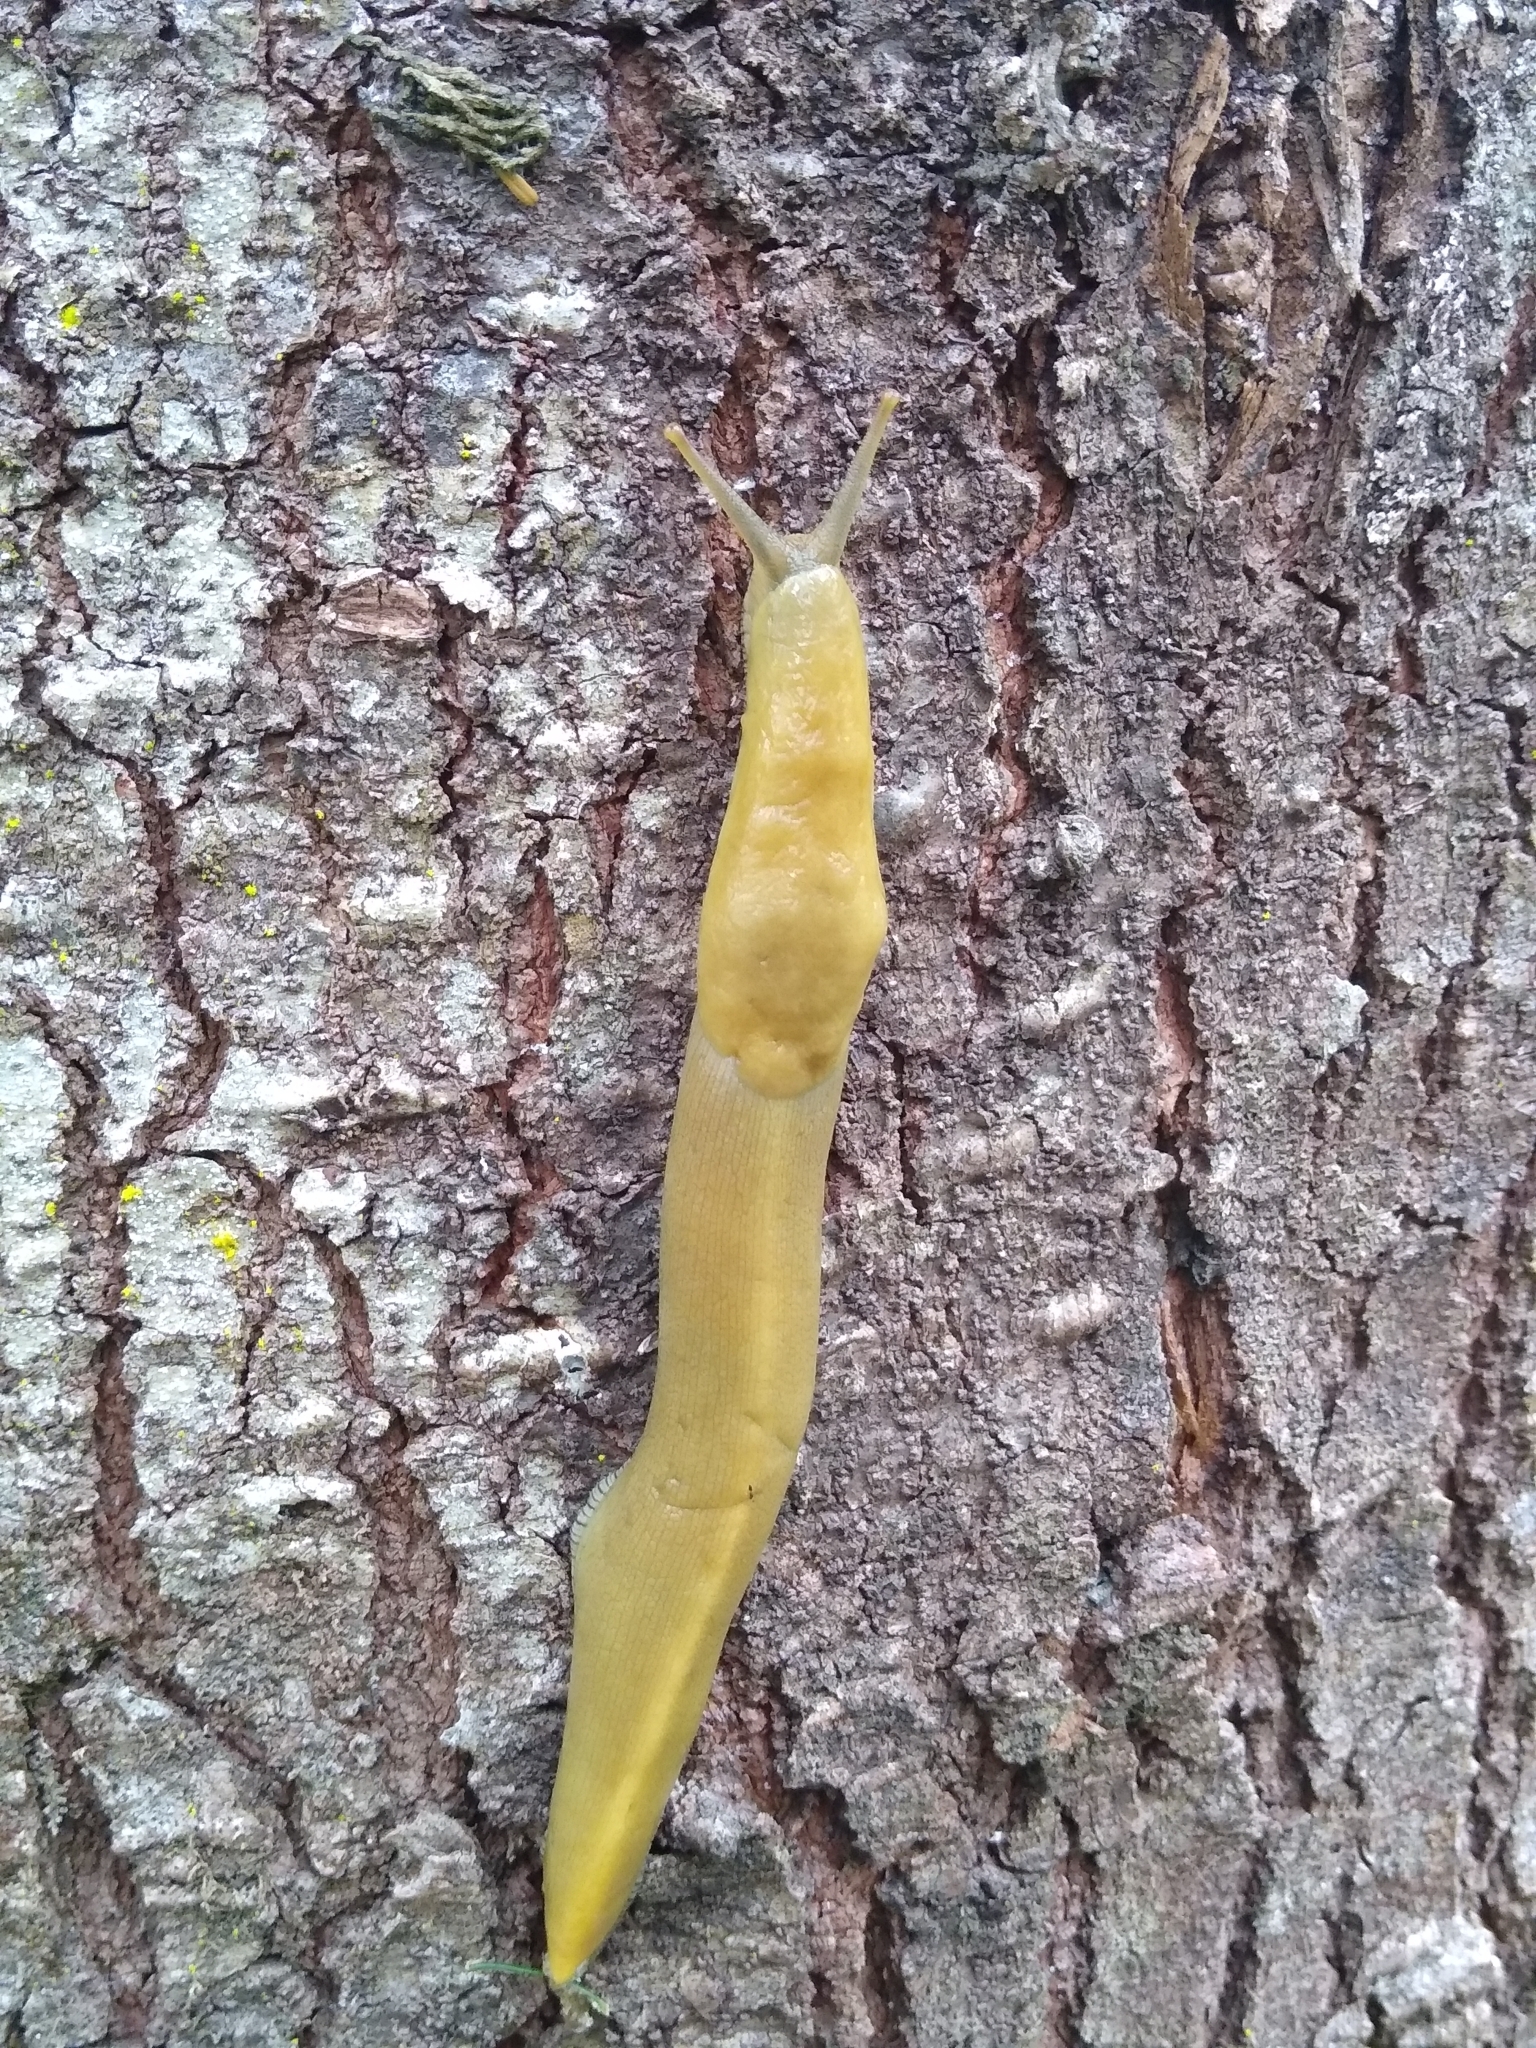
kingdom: Animalia
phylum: Mollusca
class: Gastropoda
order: Stylommatophora
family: Ariolimacidae
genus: Ariolimax
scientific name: Ariolimax buttoni
